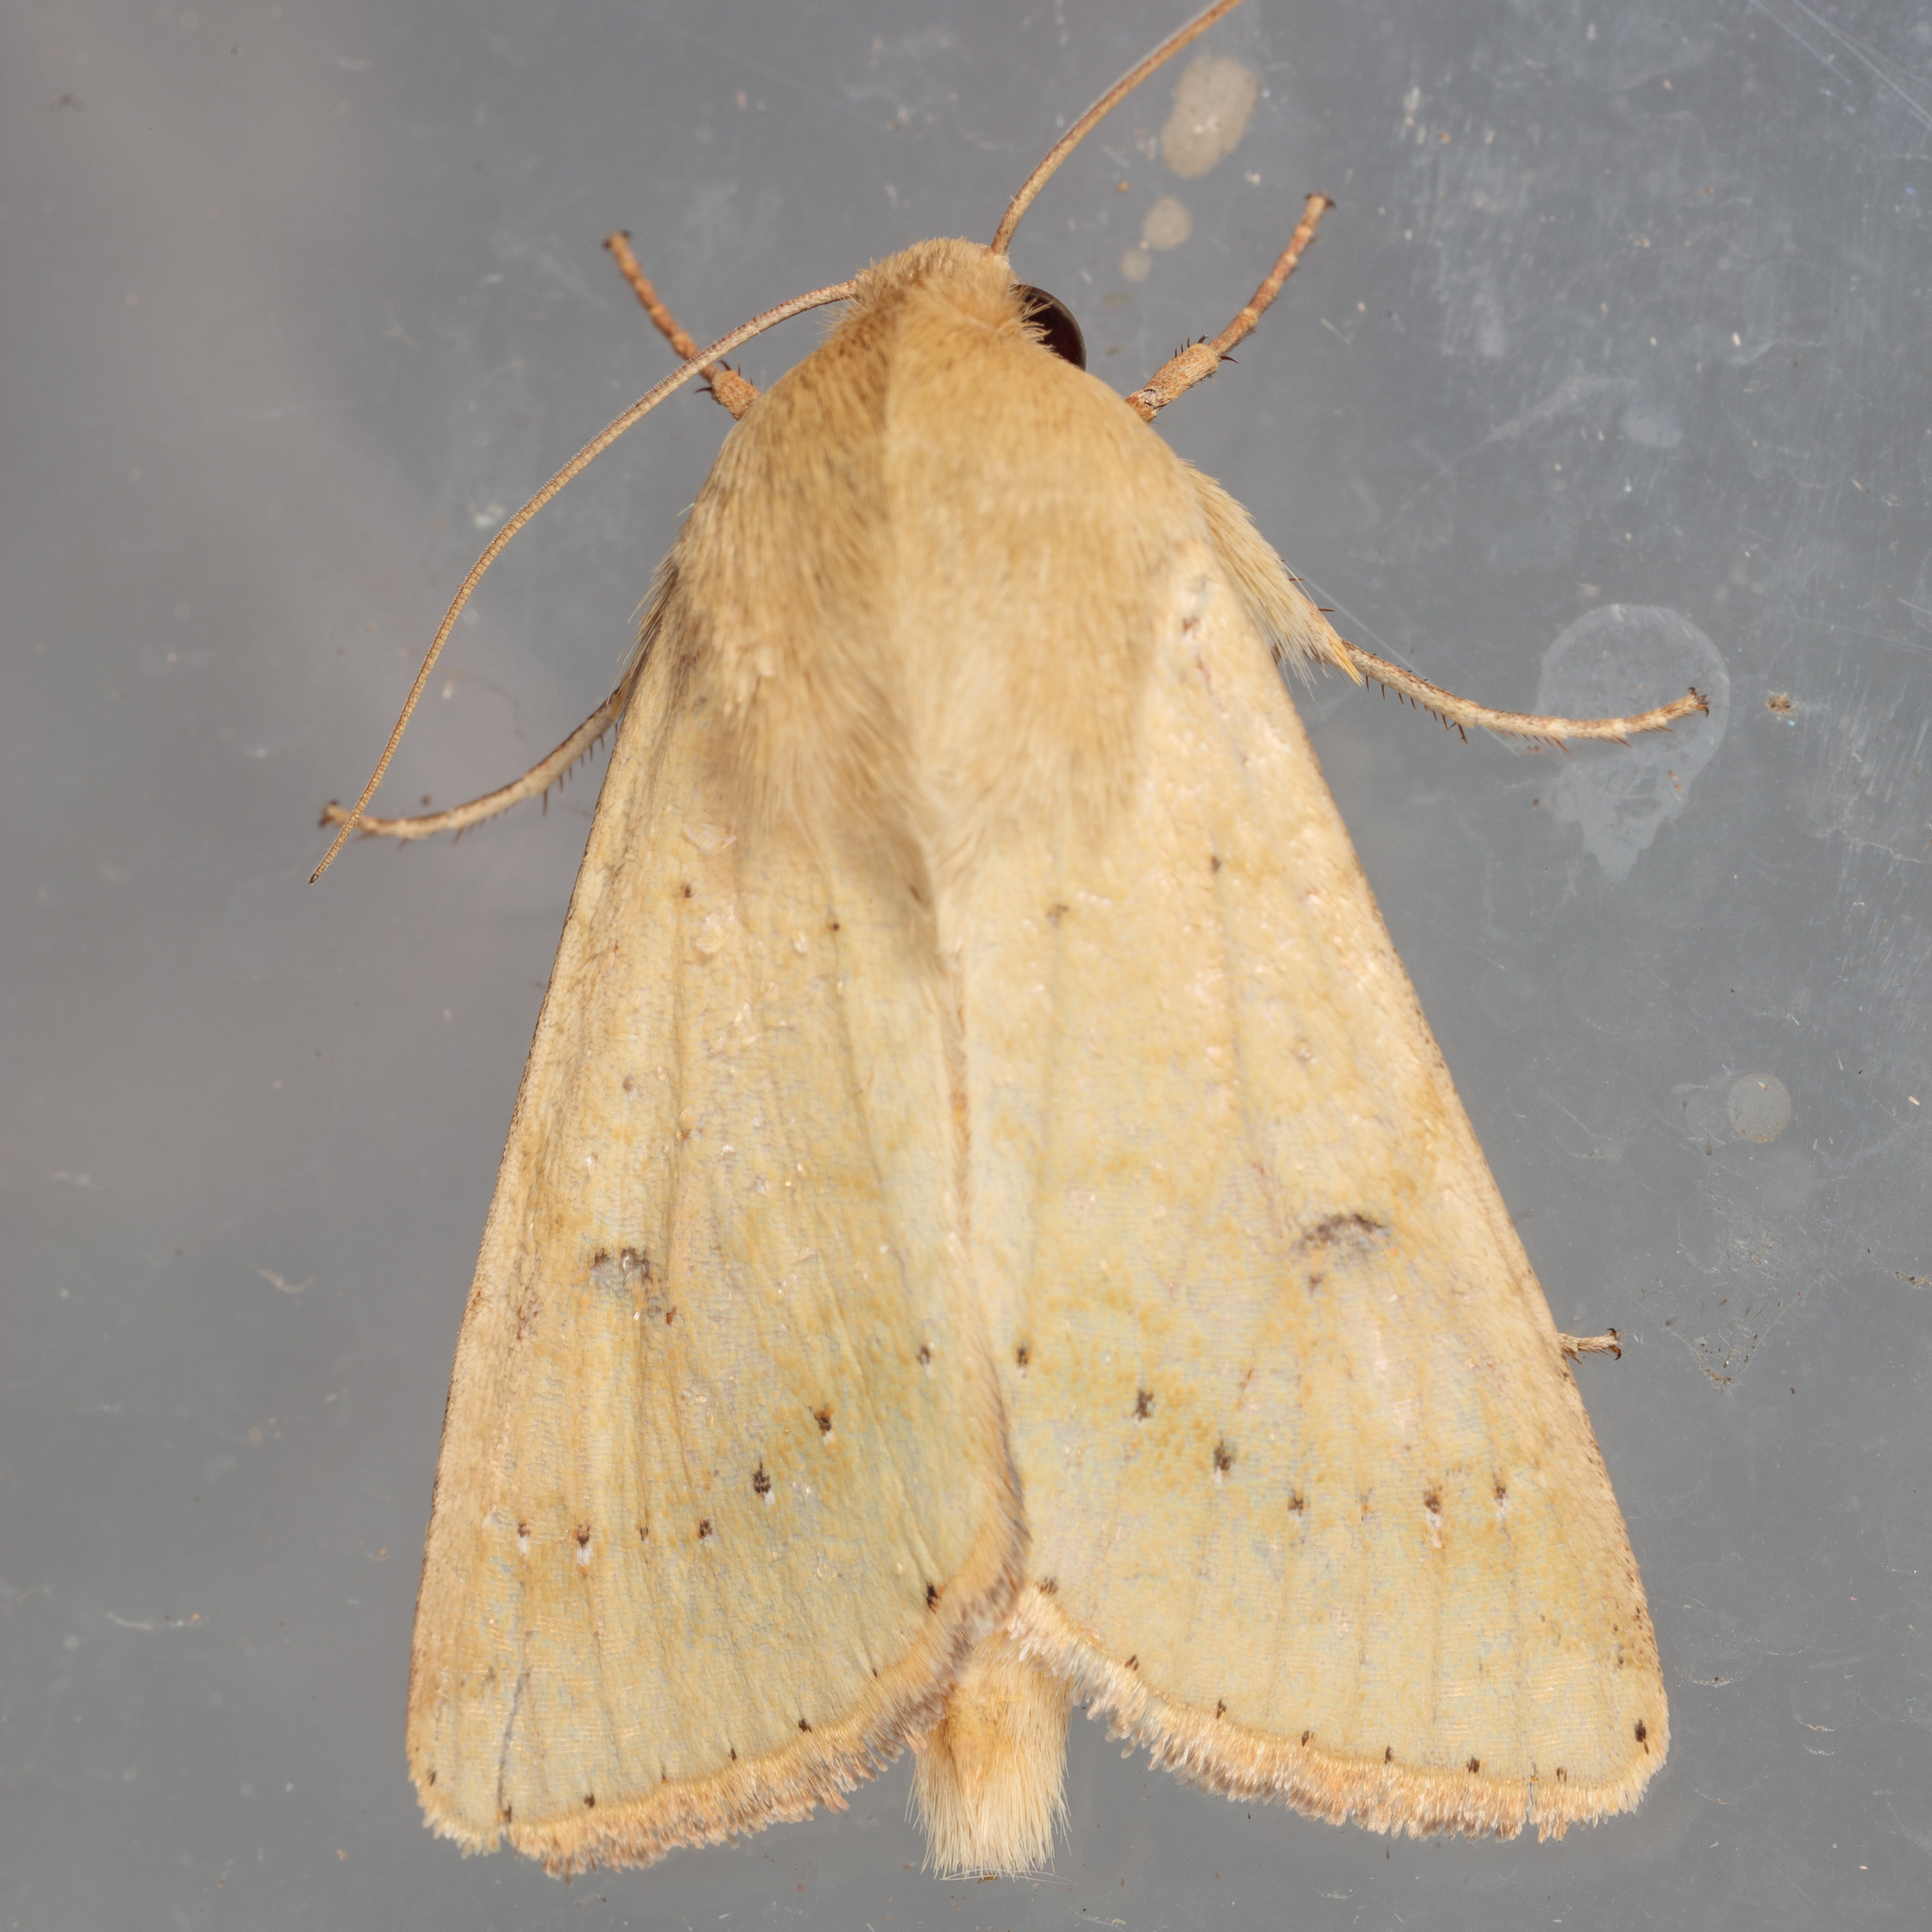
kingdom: Animalia
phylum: Arthropoda
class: Insecta
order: Lepidoptera
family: Noctuidae
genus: Helicoverpa
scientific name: Helicoverpa zea
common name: Bollworm
